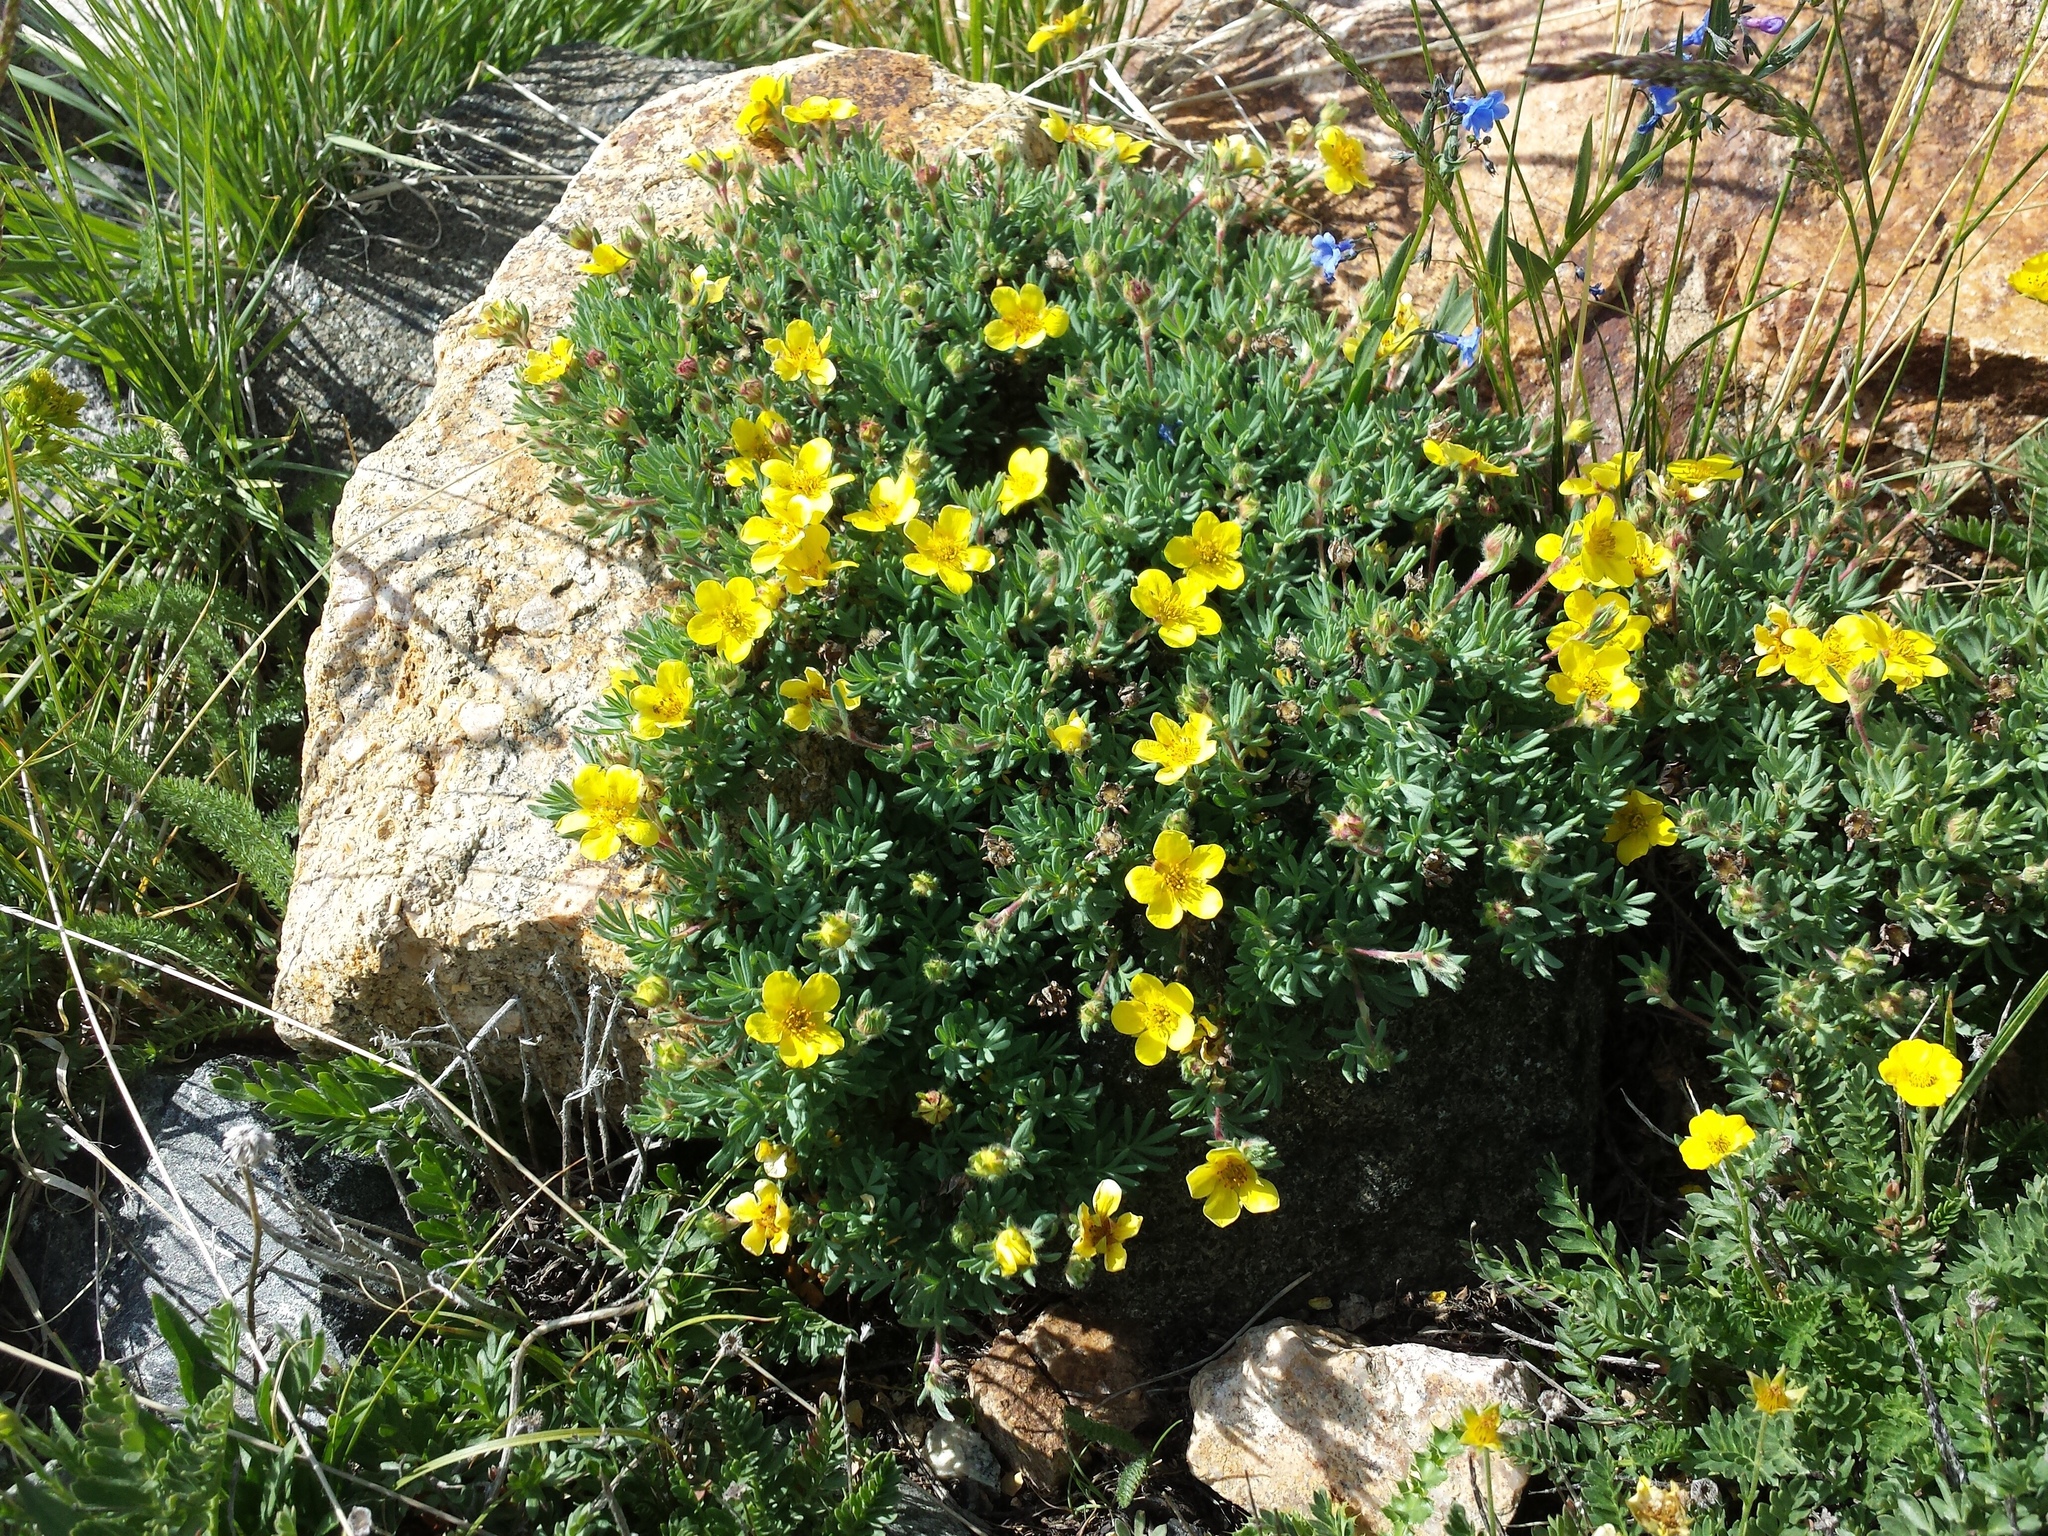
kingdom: Plantae
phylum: Tracheophyta
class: Magnoliopsida
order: Rosales
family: Rosaceae
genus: Dasiphora
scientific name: Dasiphora fruticosa
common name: Shrubby cinquefoil
